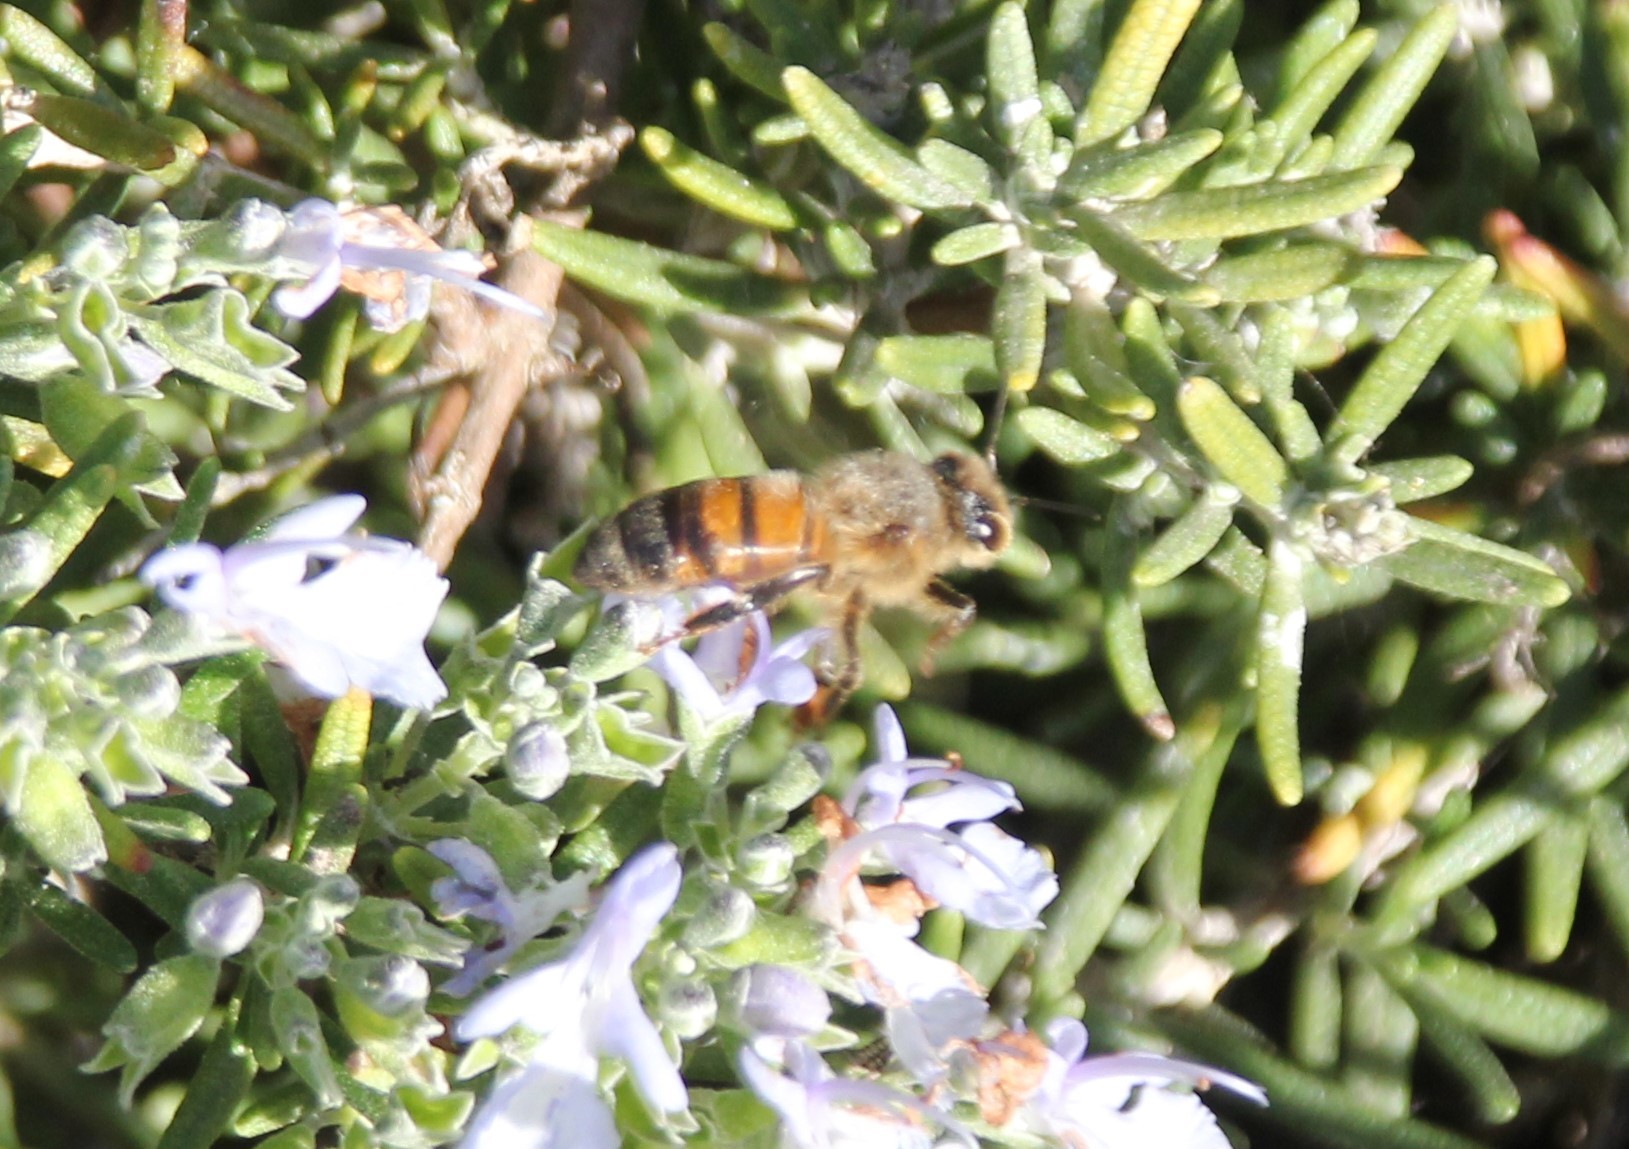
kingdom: Animalia
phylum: Arthropoda
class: Insecta
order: Hymenoptera
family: Apidae
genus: Apis
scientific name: Apis mellifera
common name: Honey bee
